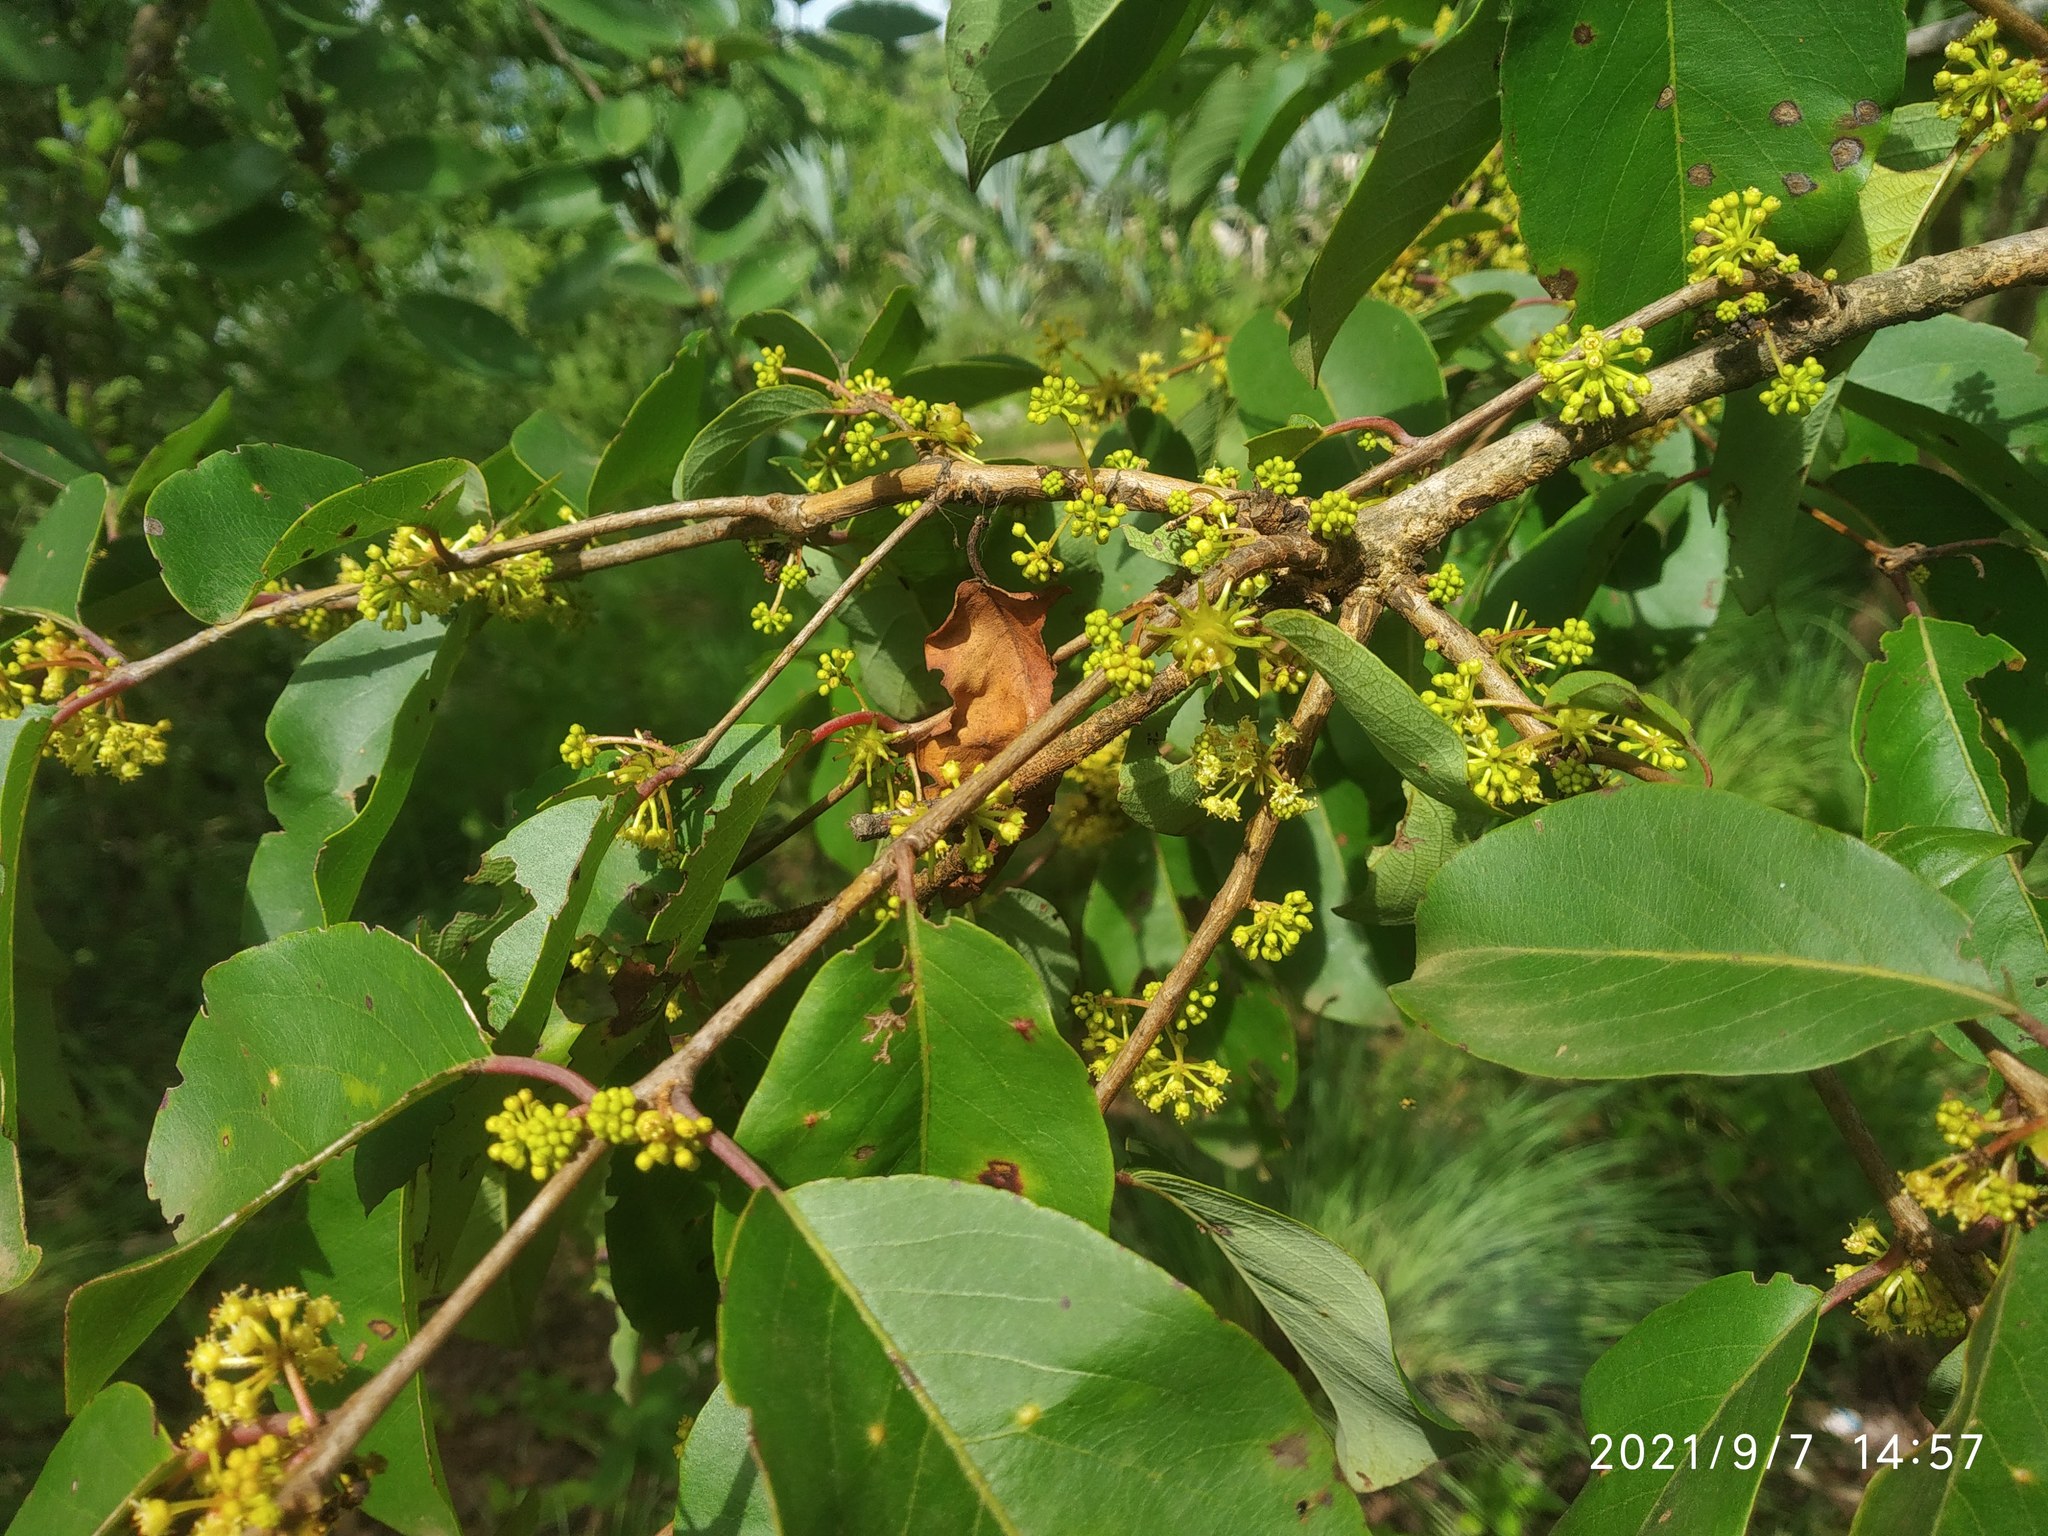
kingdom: Plantae
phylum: Tracheophyta
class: Magnoliopsida
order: Myrtales
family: Combretaceae
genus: Terminalia
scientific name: Terminalia latifolia
